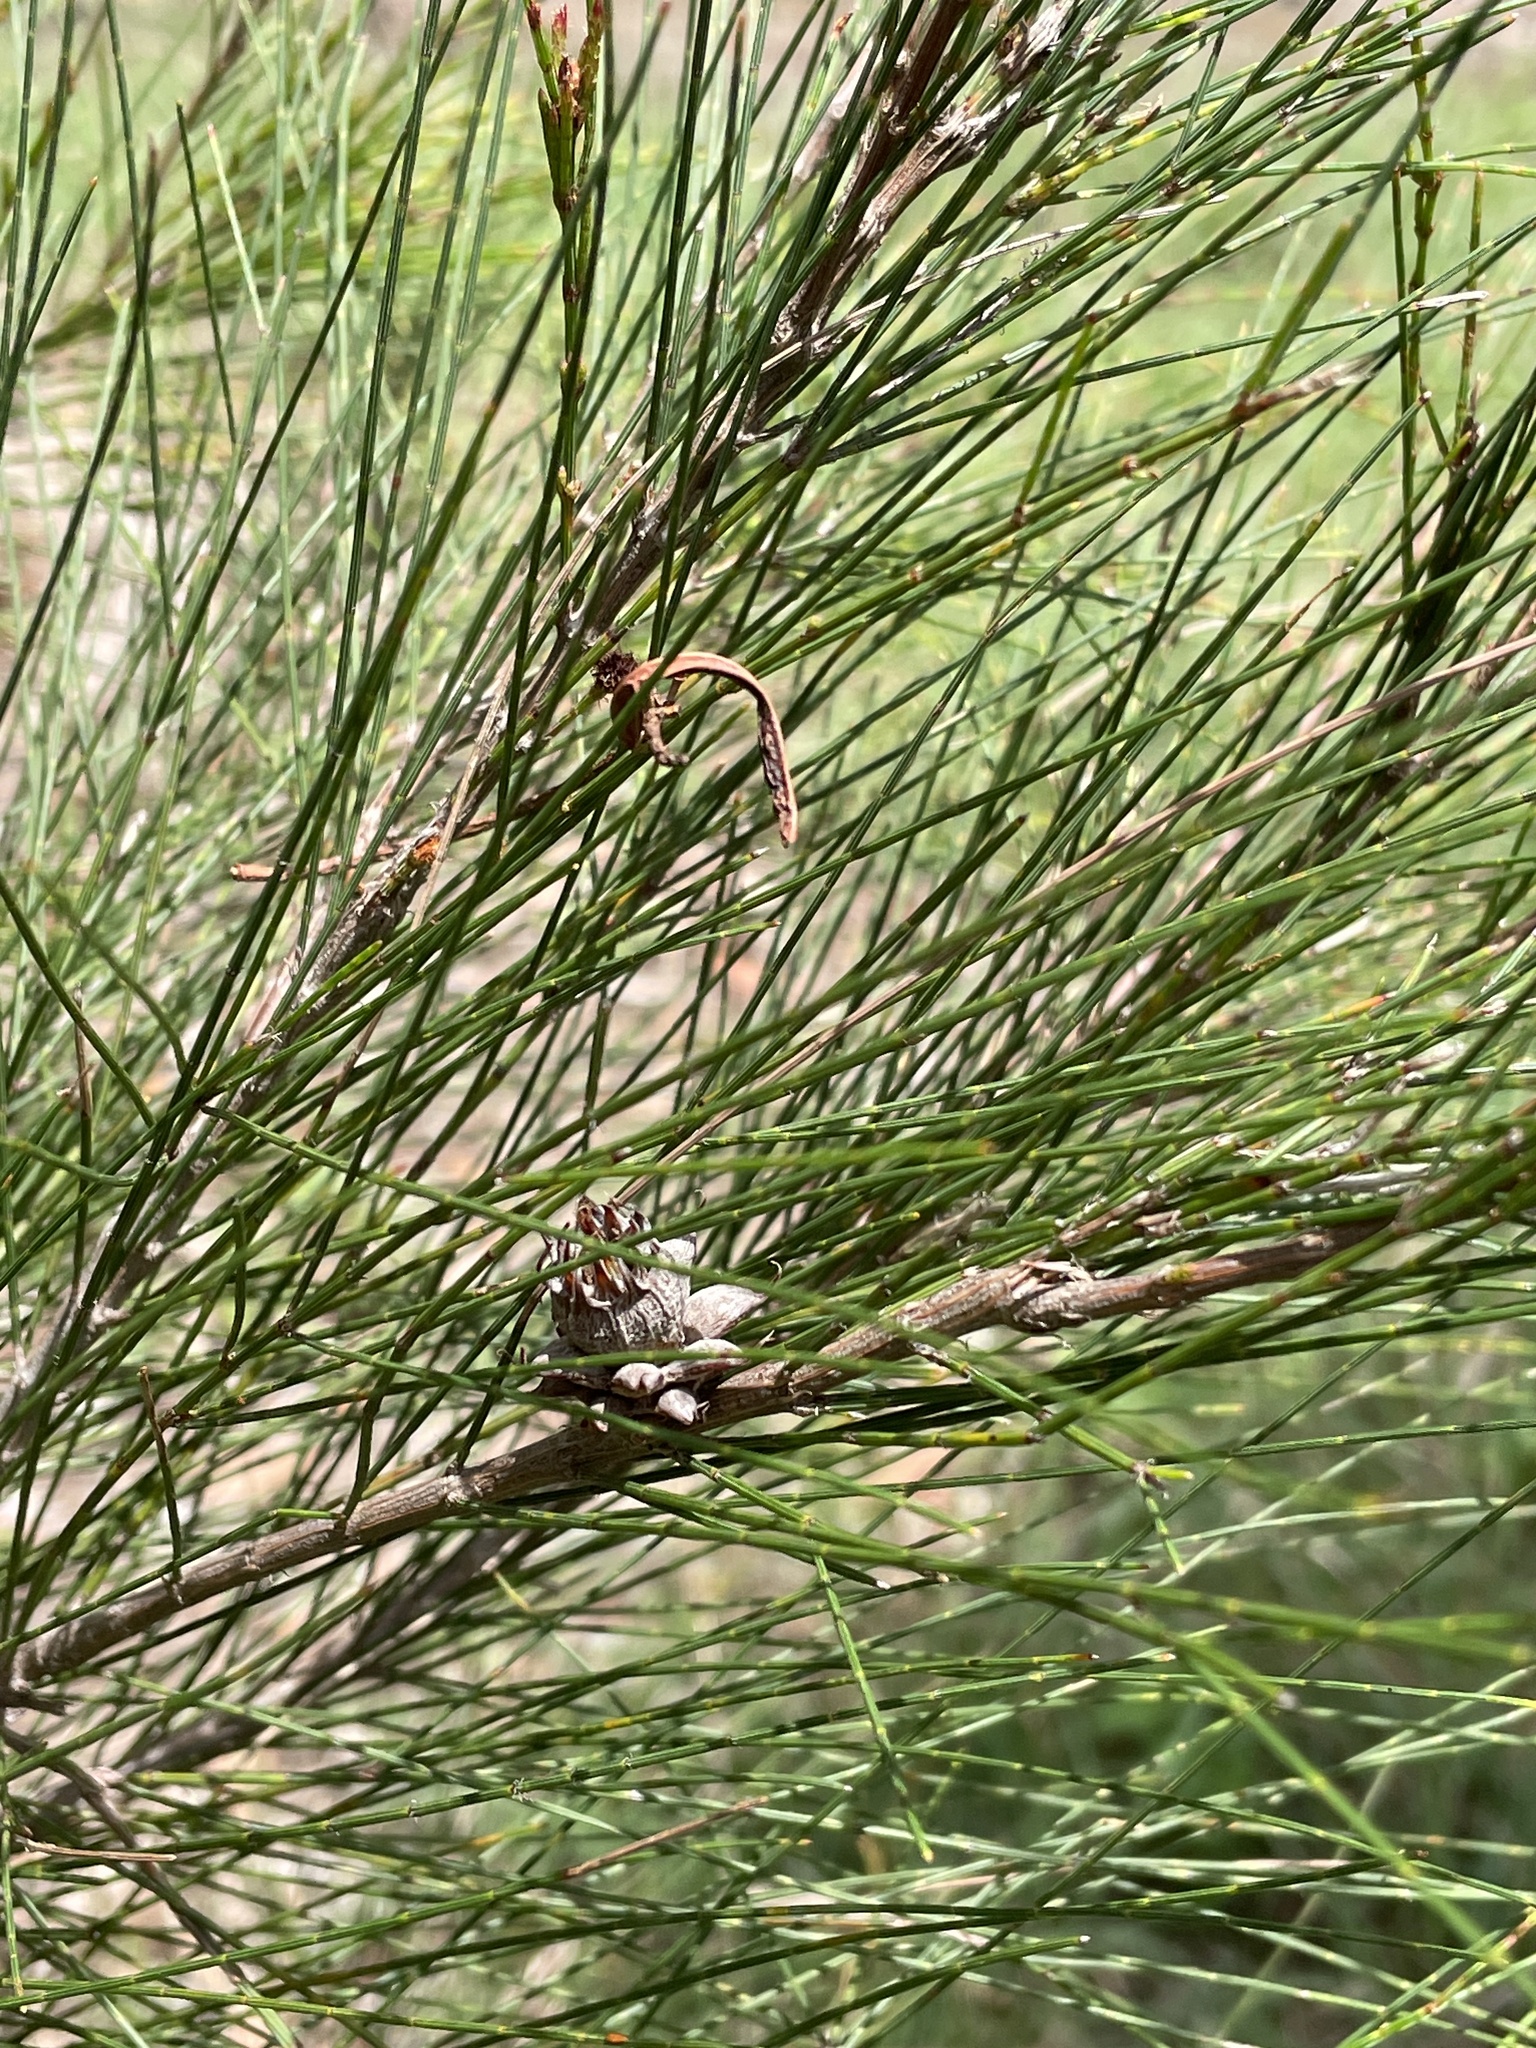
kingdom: Animalia
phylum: Arthropoda
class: Insecta
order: Hemiptera
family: Eriococcidae
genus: Cylindrococcus
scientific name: Cylindrococcus spiniferus
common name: Casuarina gall
